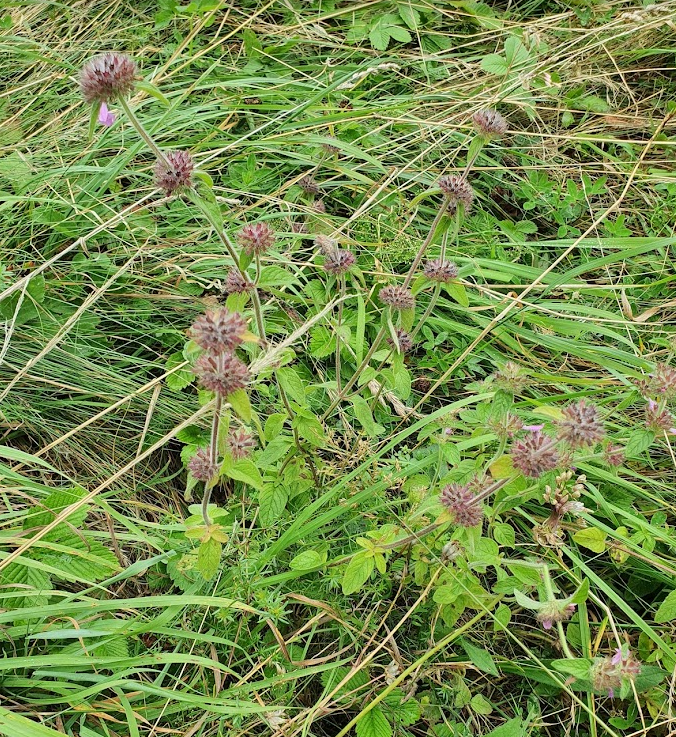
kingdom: Plantae
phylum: Tracheophyta
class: Magnoliopsida
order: Lamiales
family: Lamiaceae
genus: Clinopodium
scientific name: Clinopodium vulgare
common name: Wild basil
